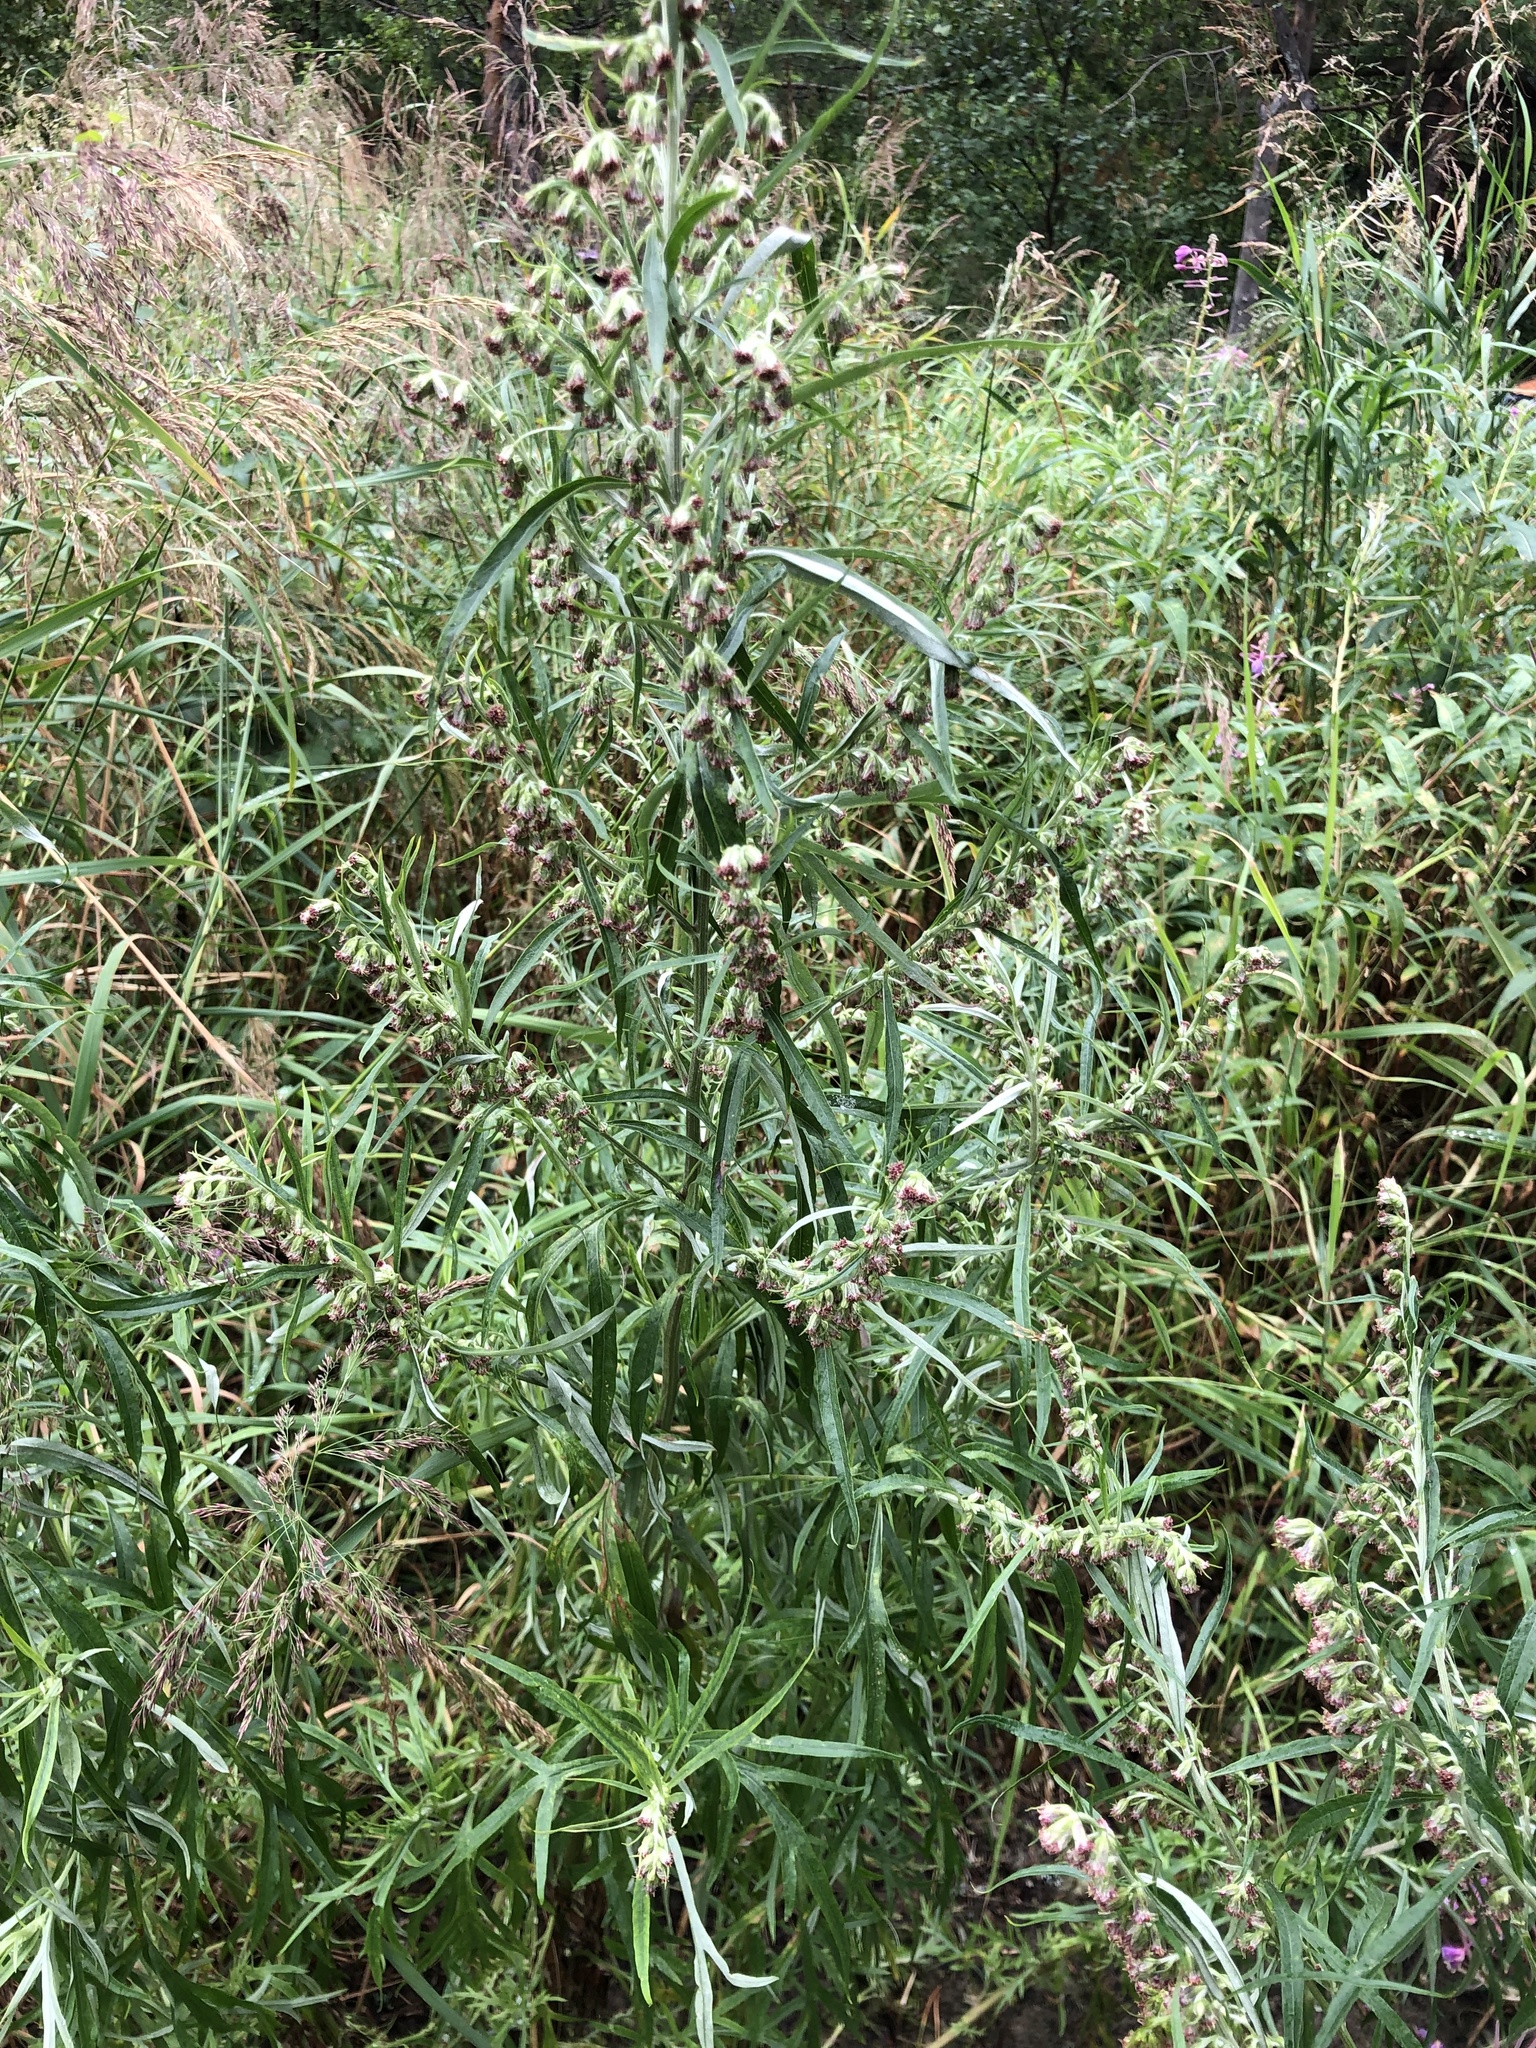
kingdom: Plantae
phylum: Tracheophyta
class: Magnoliopsida
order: Asterales
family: Asteraceae
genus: Artemisia
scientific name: Artemisia vulgaris
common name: Mugwort
